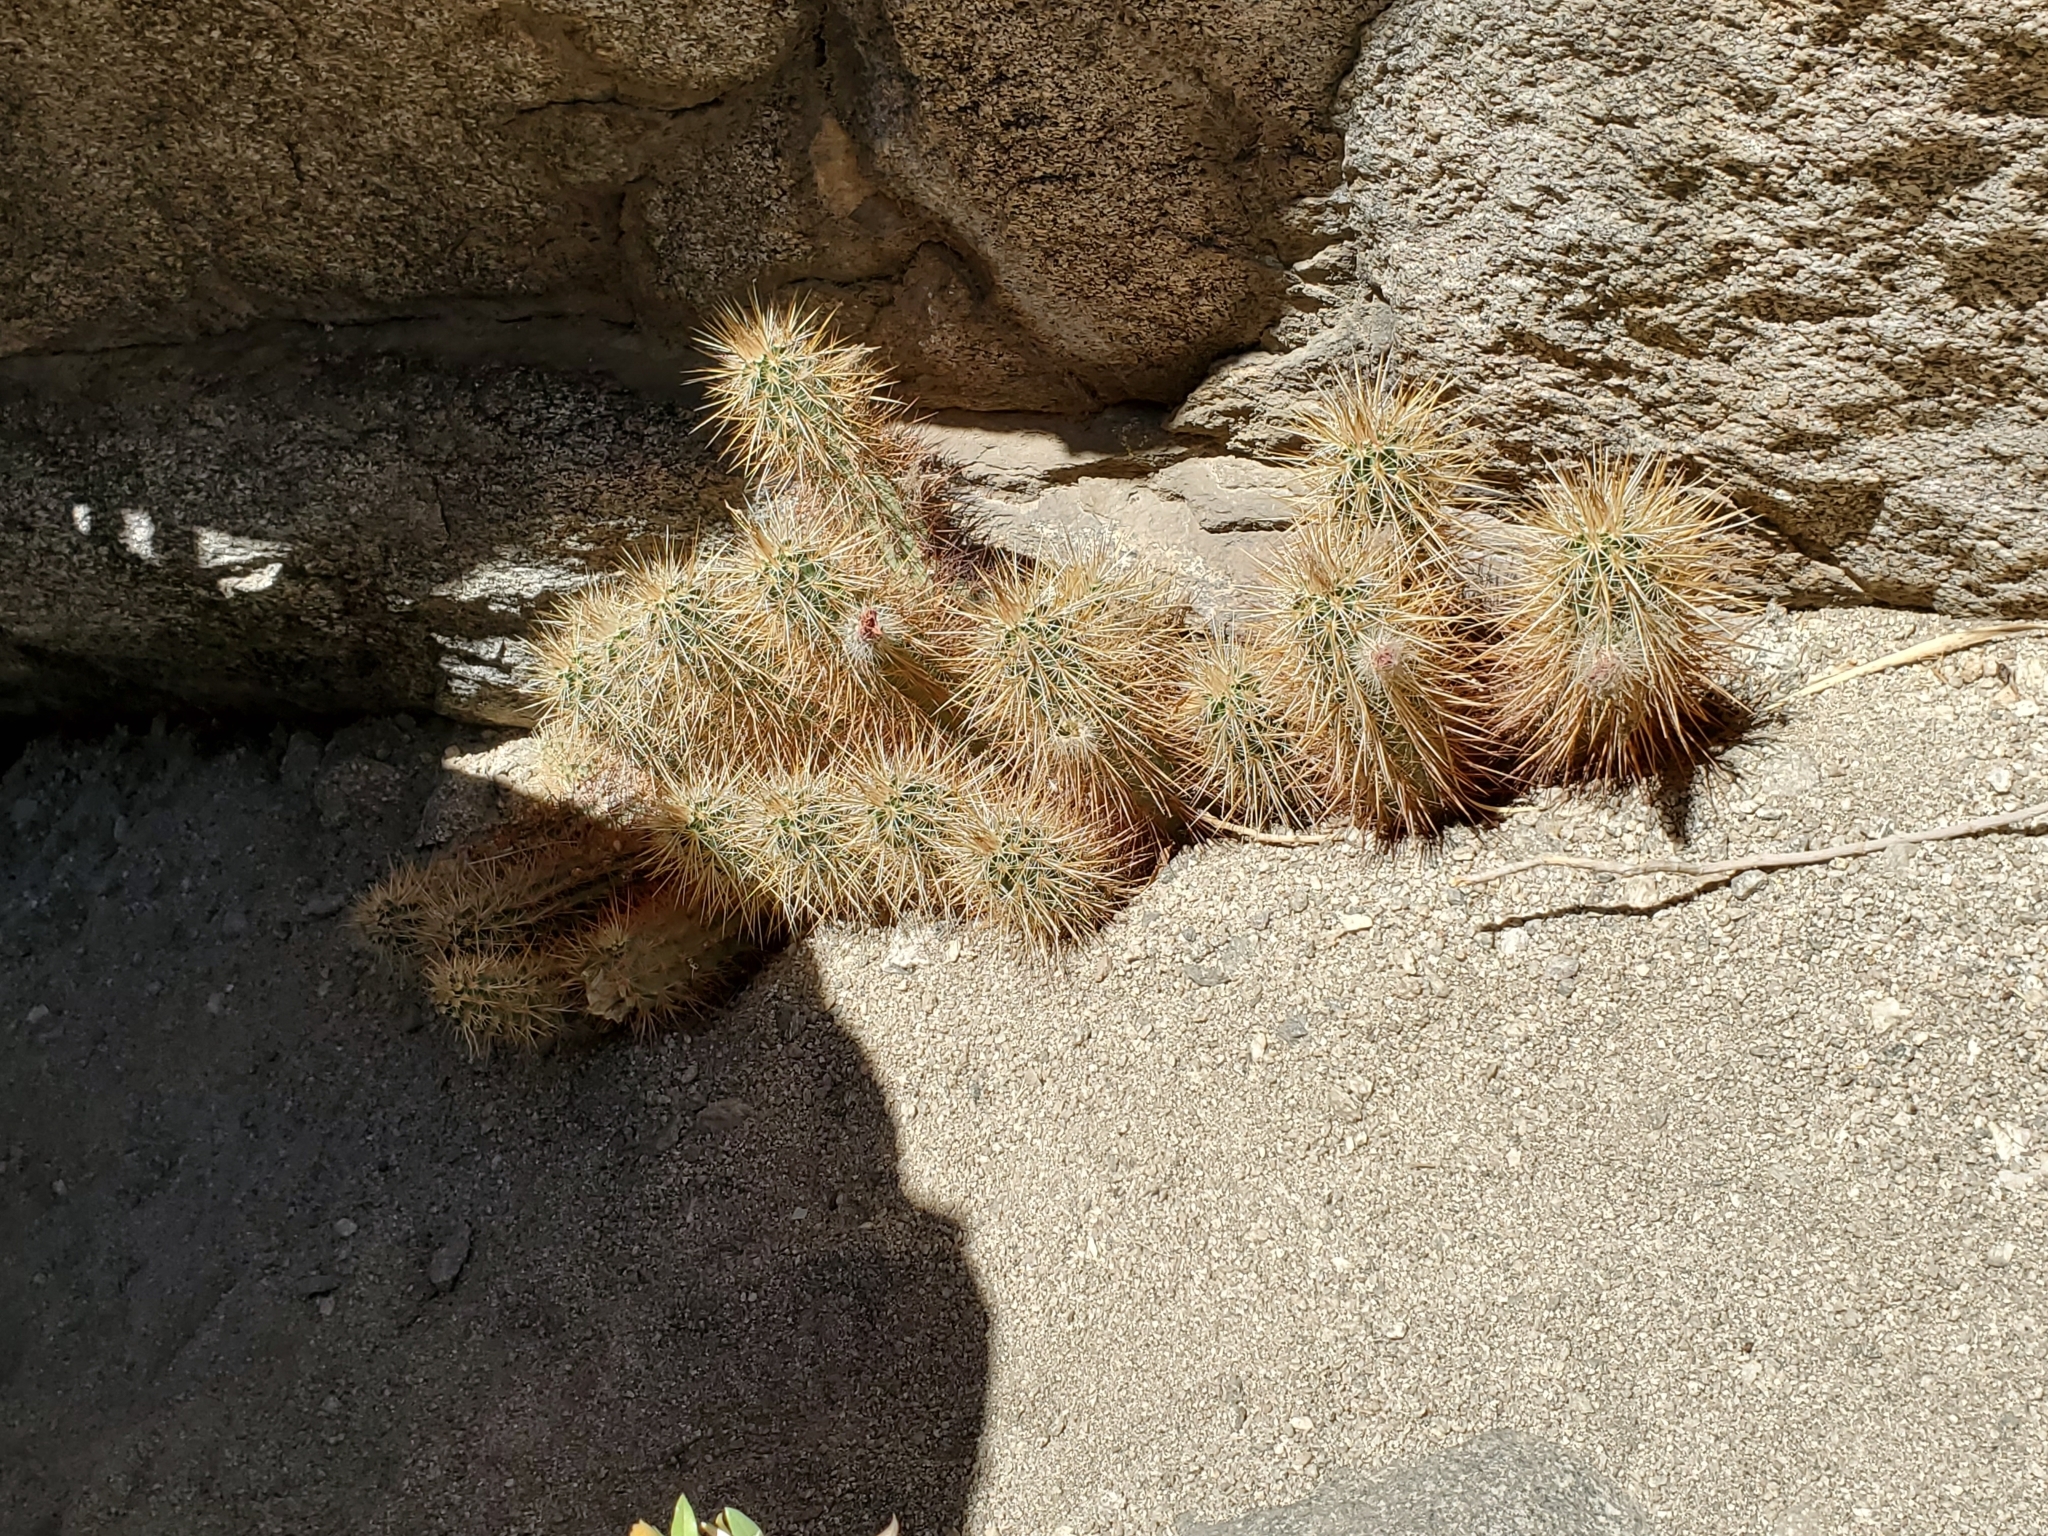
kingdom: Plantae
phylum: Tracheophyta
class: Magnoliopsida
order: Caryophyllales
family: Cactaceae
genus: Echinocereus
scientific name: Echinocereus engelmannii
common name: Engelmann's hedgehog cactus
